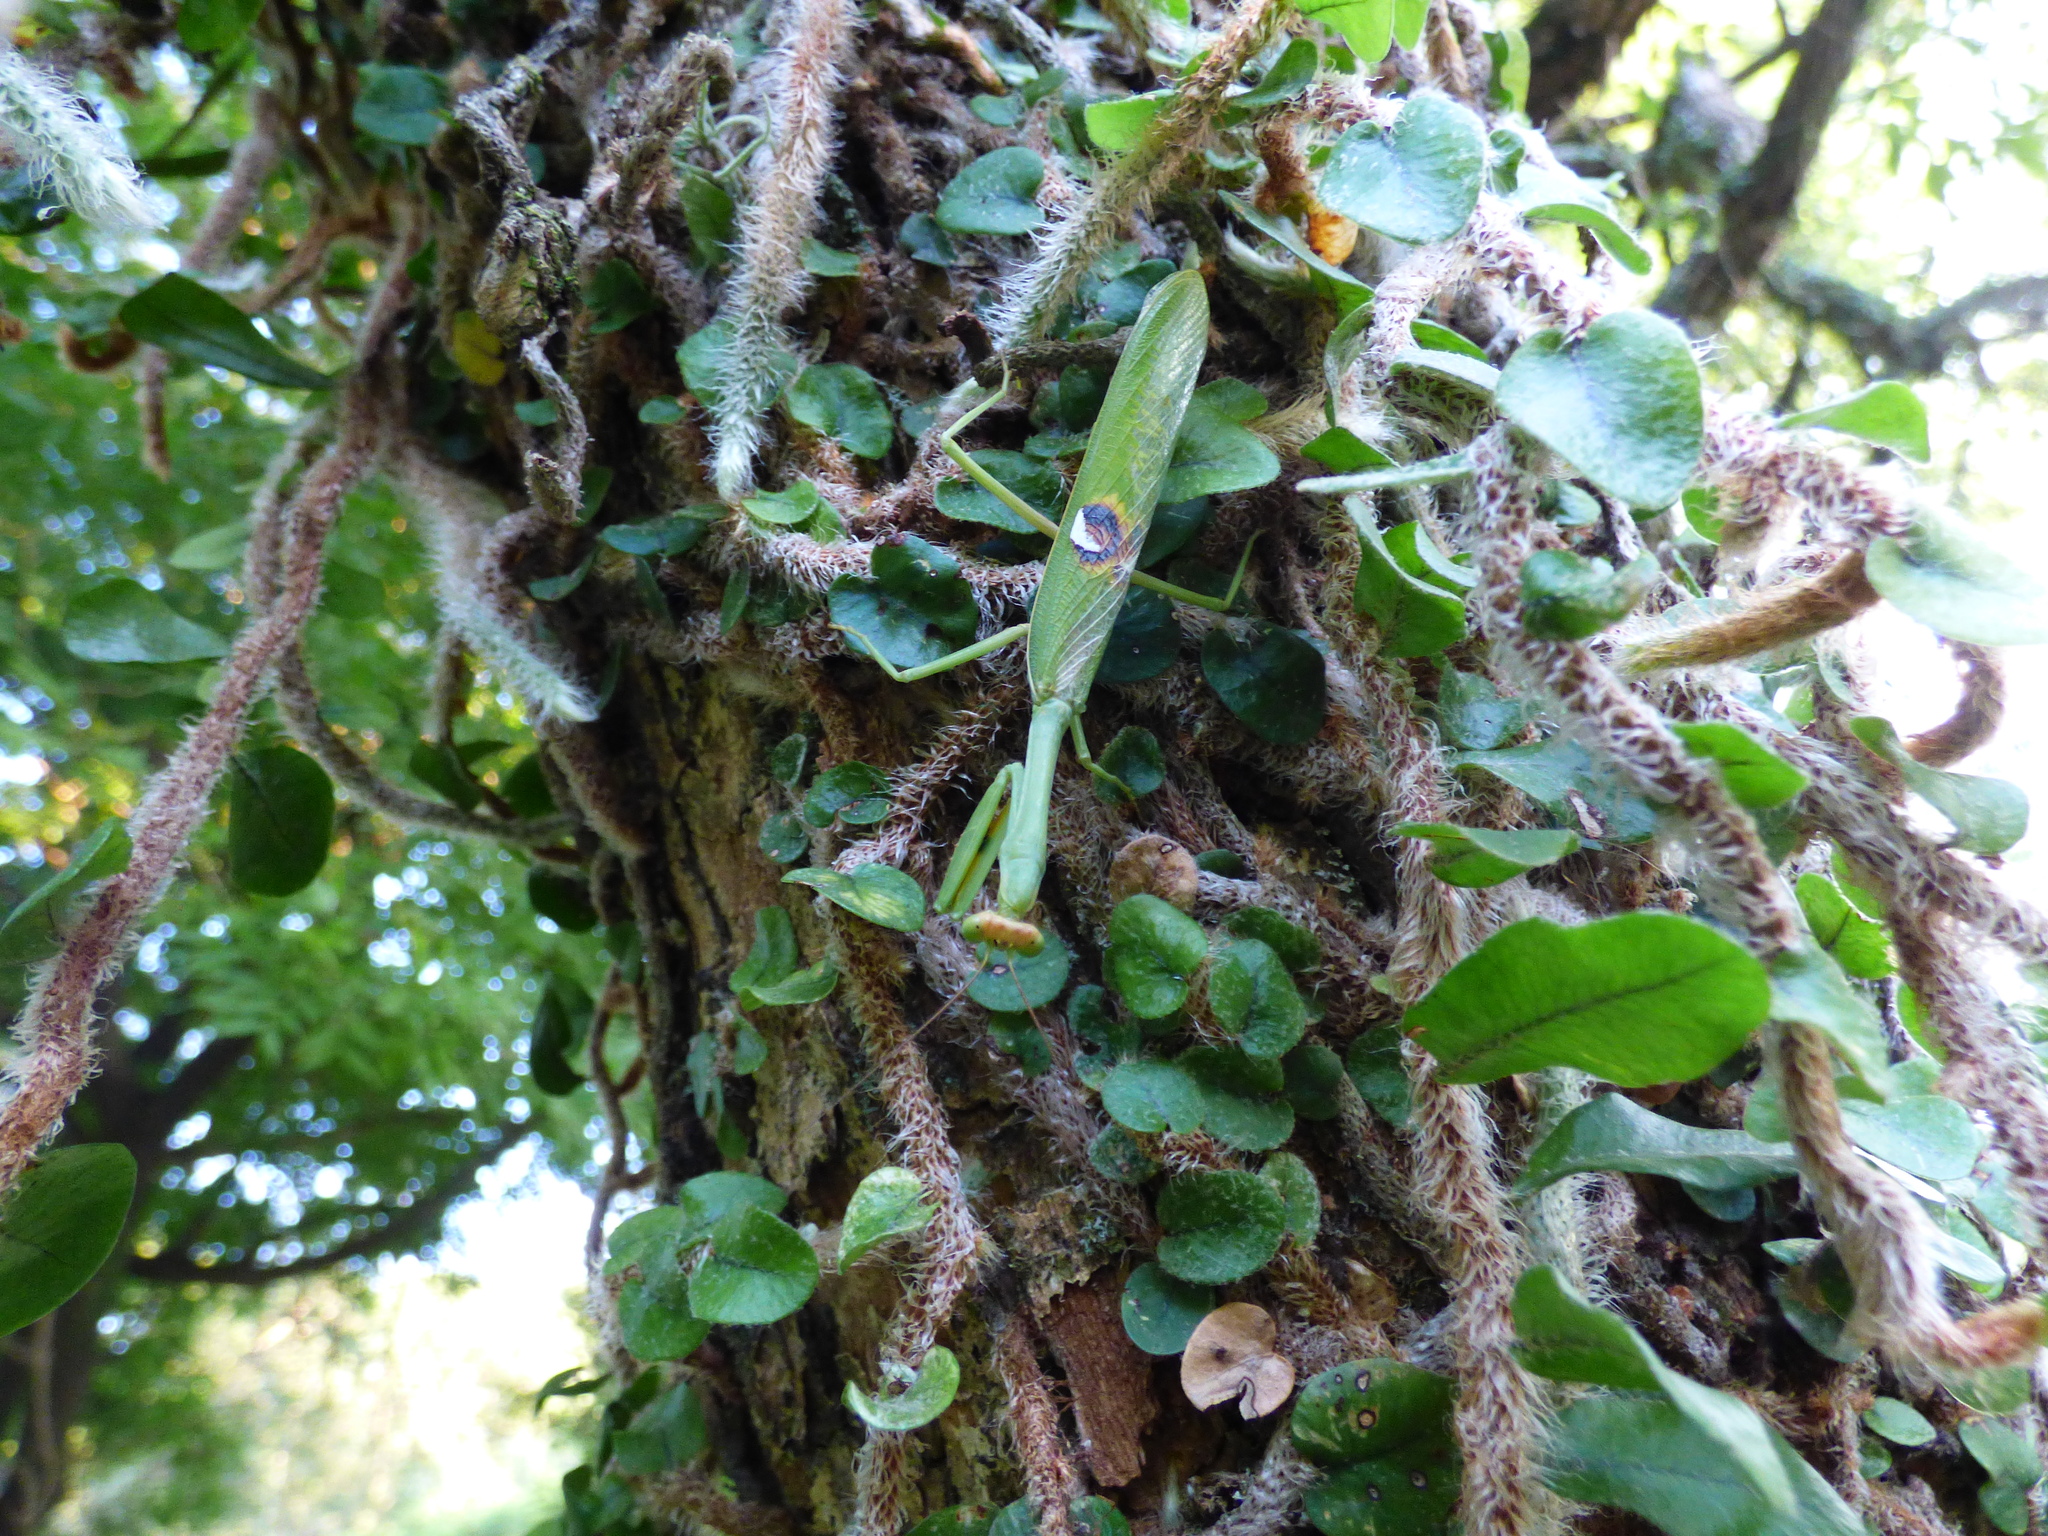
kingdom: Animalia
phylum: Arthropoda
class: Insecta
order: Mantodea
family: Mantidae
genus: Stagmatoptera
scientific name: Stagmatoptera hyaloptera
